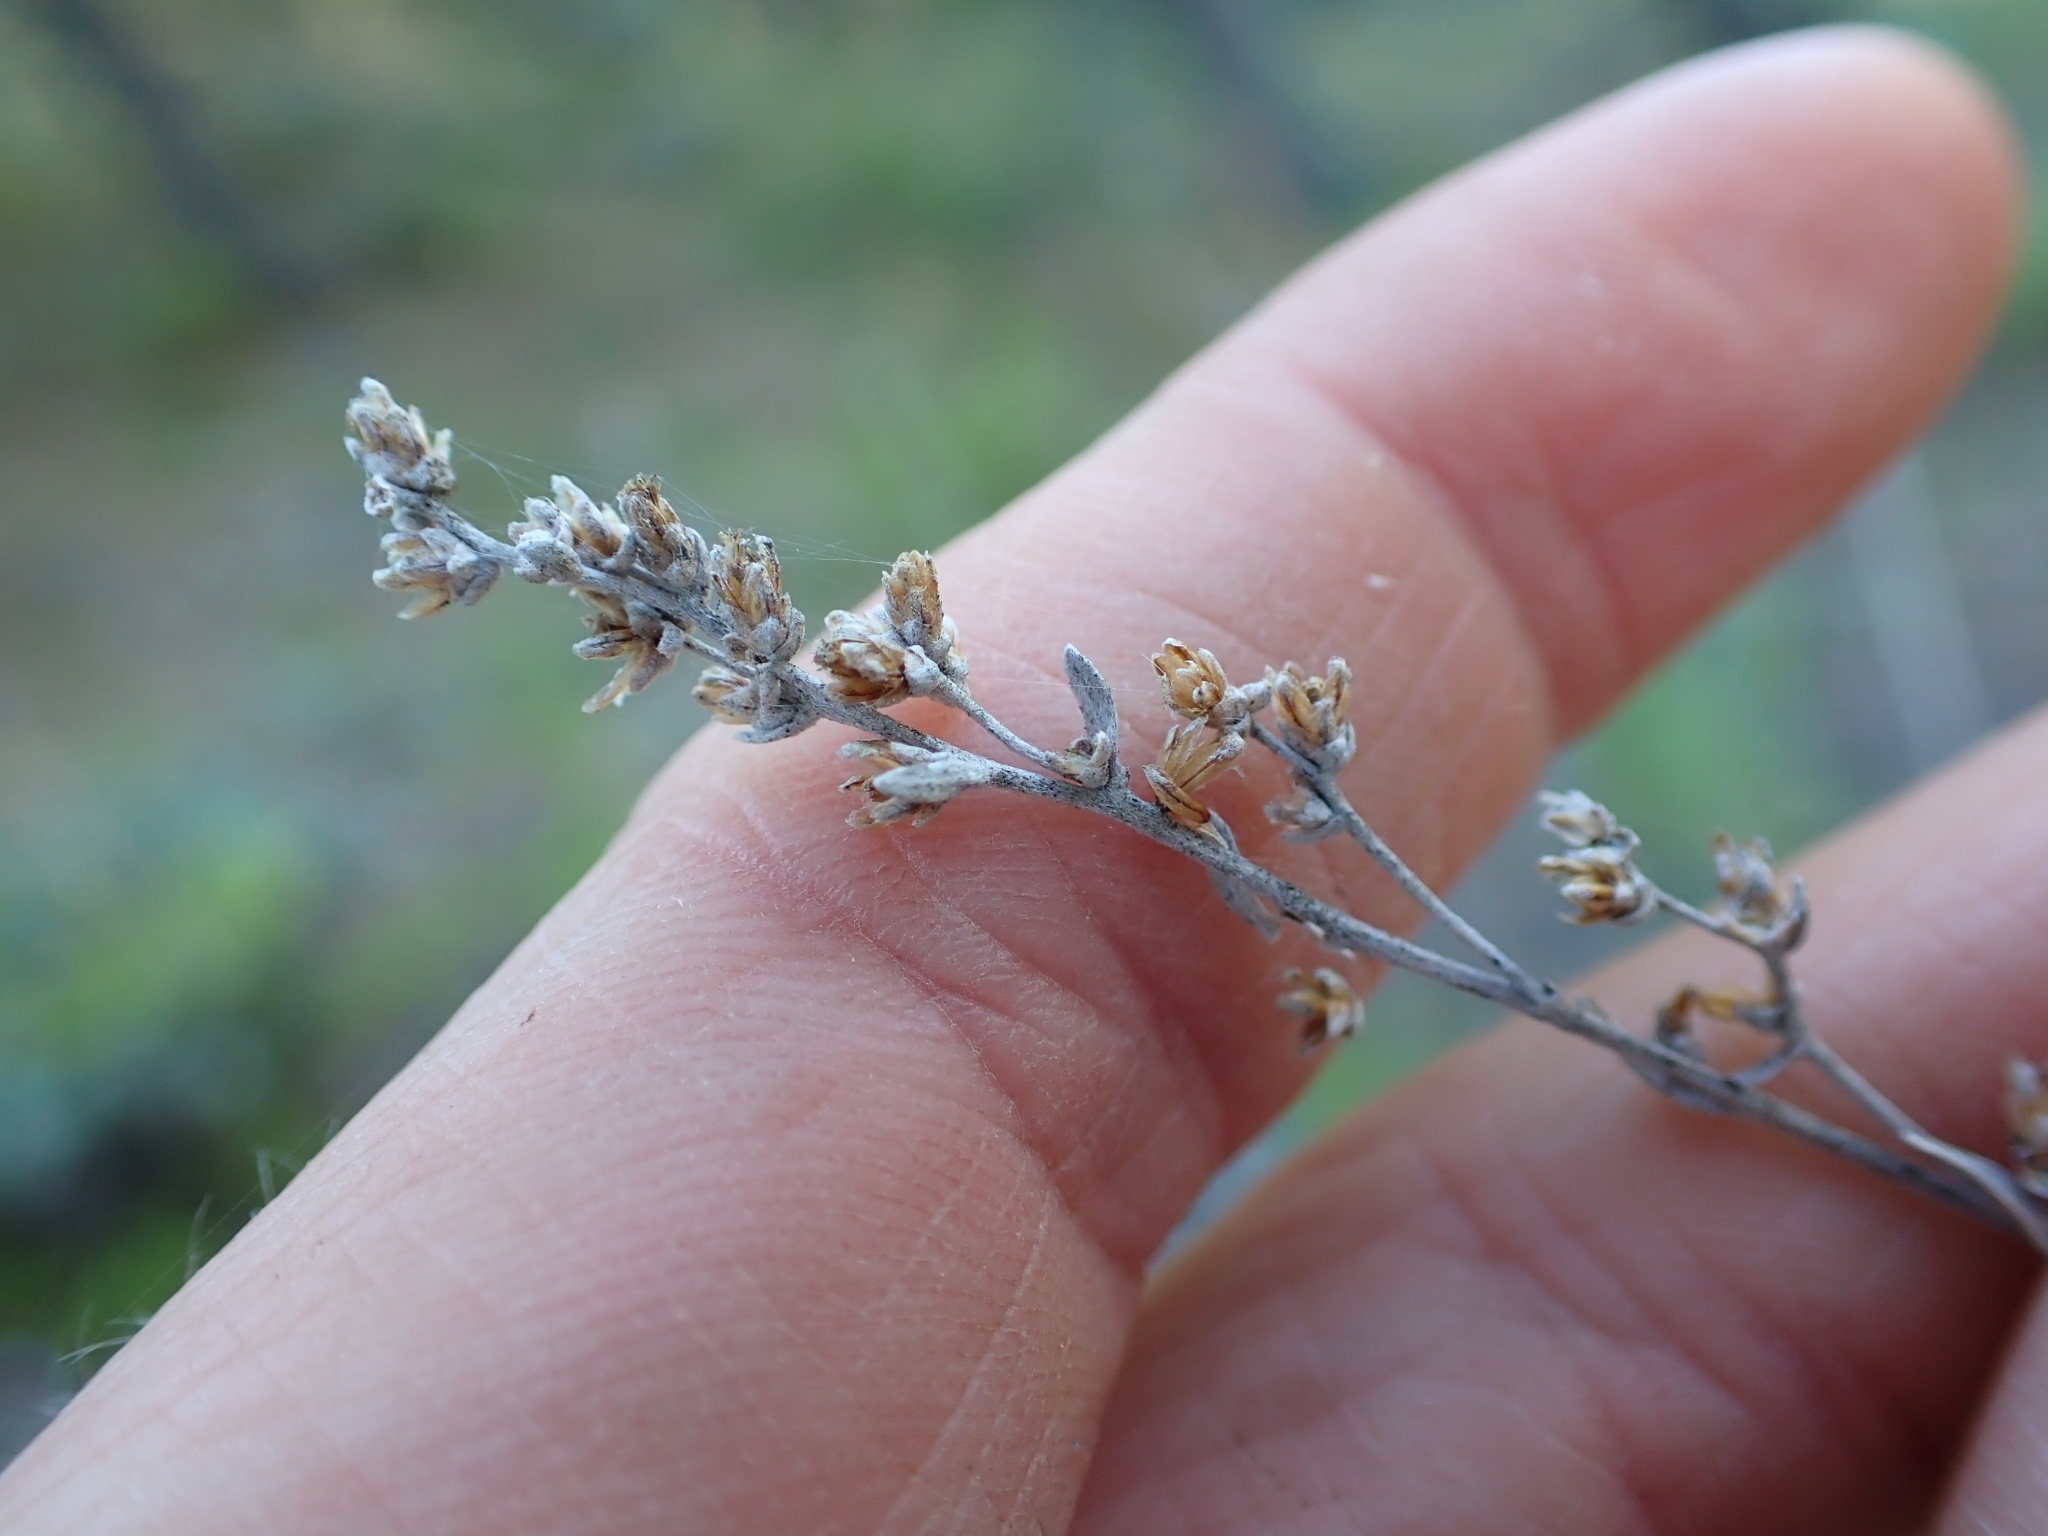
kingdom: Plantae
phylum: Tracheophyta
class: Magnoliopsida
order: Asterales
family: Asteraceae
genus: Artemisia
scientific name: Artemisia tridentata
